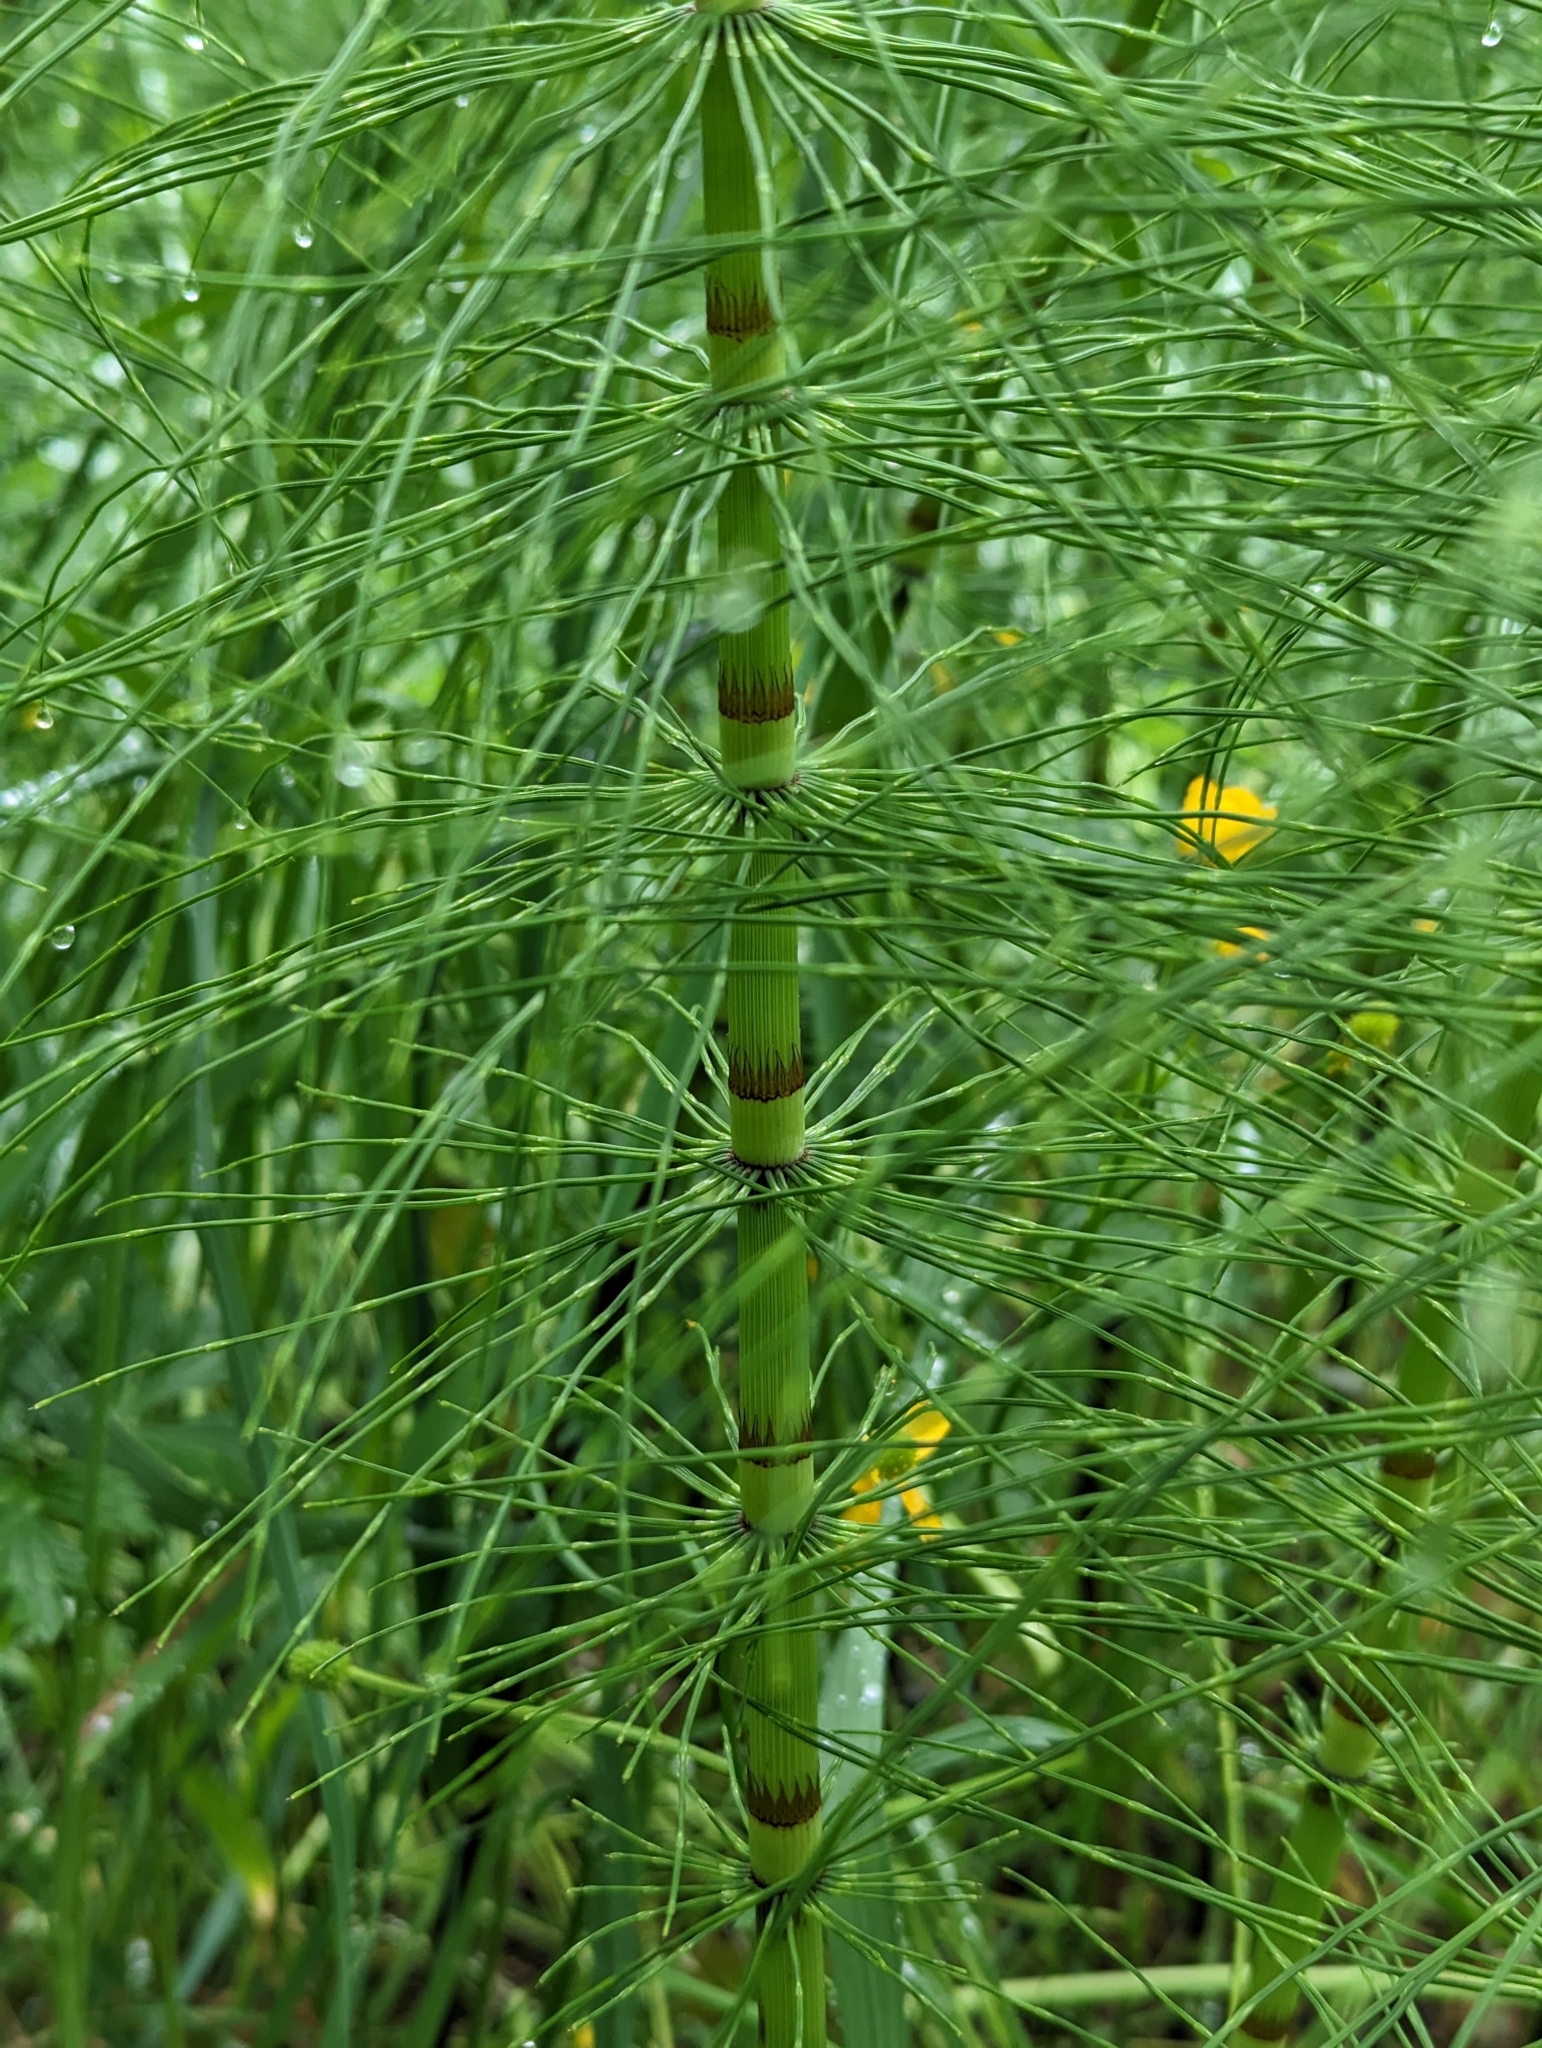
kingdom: Plantae
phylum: Tracheophyta
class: Polypodiopsida
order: Equisetales
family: Equisetaceae
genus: Equisetum
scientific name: Equisetum braunii
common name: Braun's horsetail
